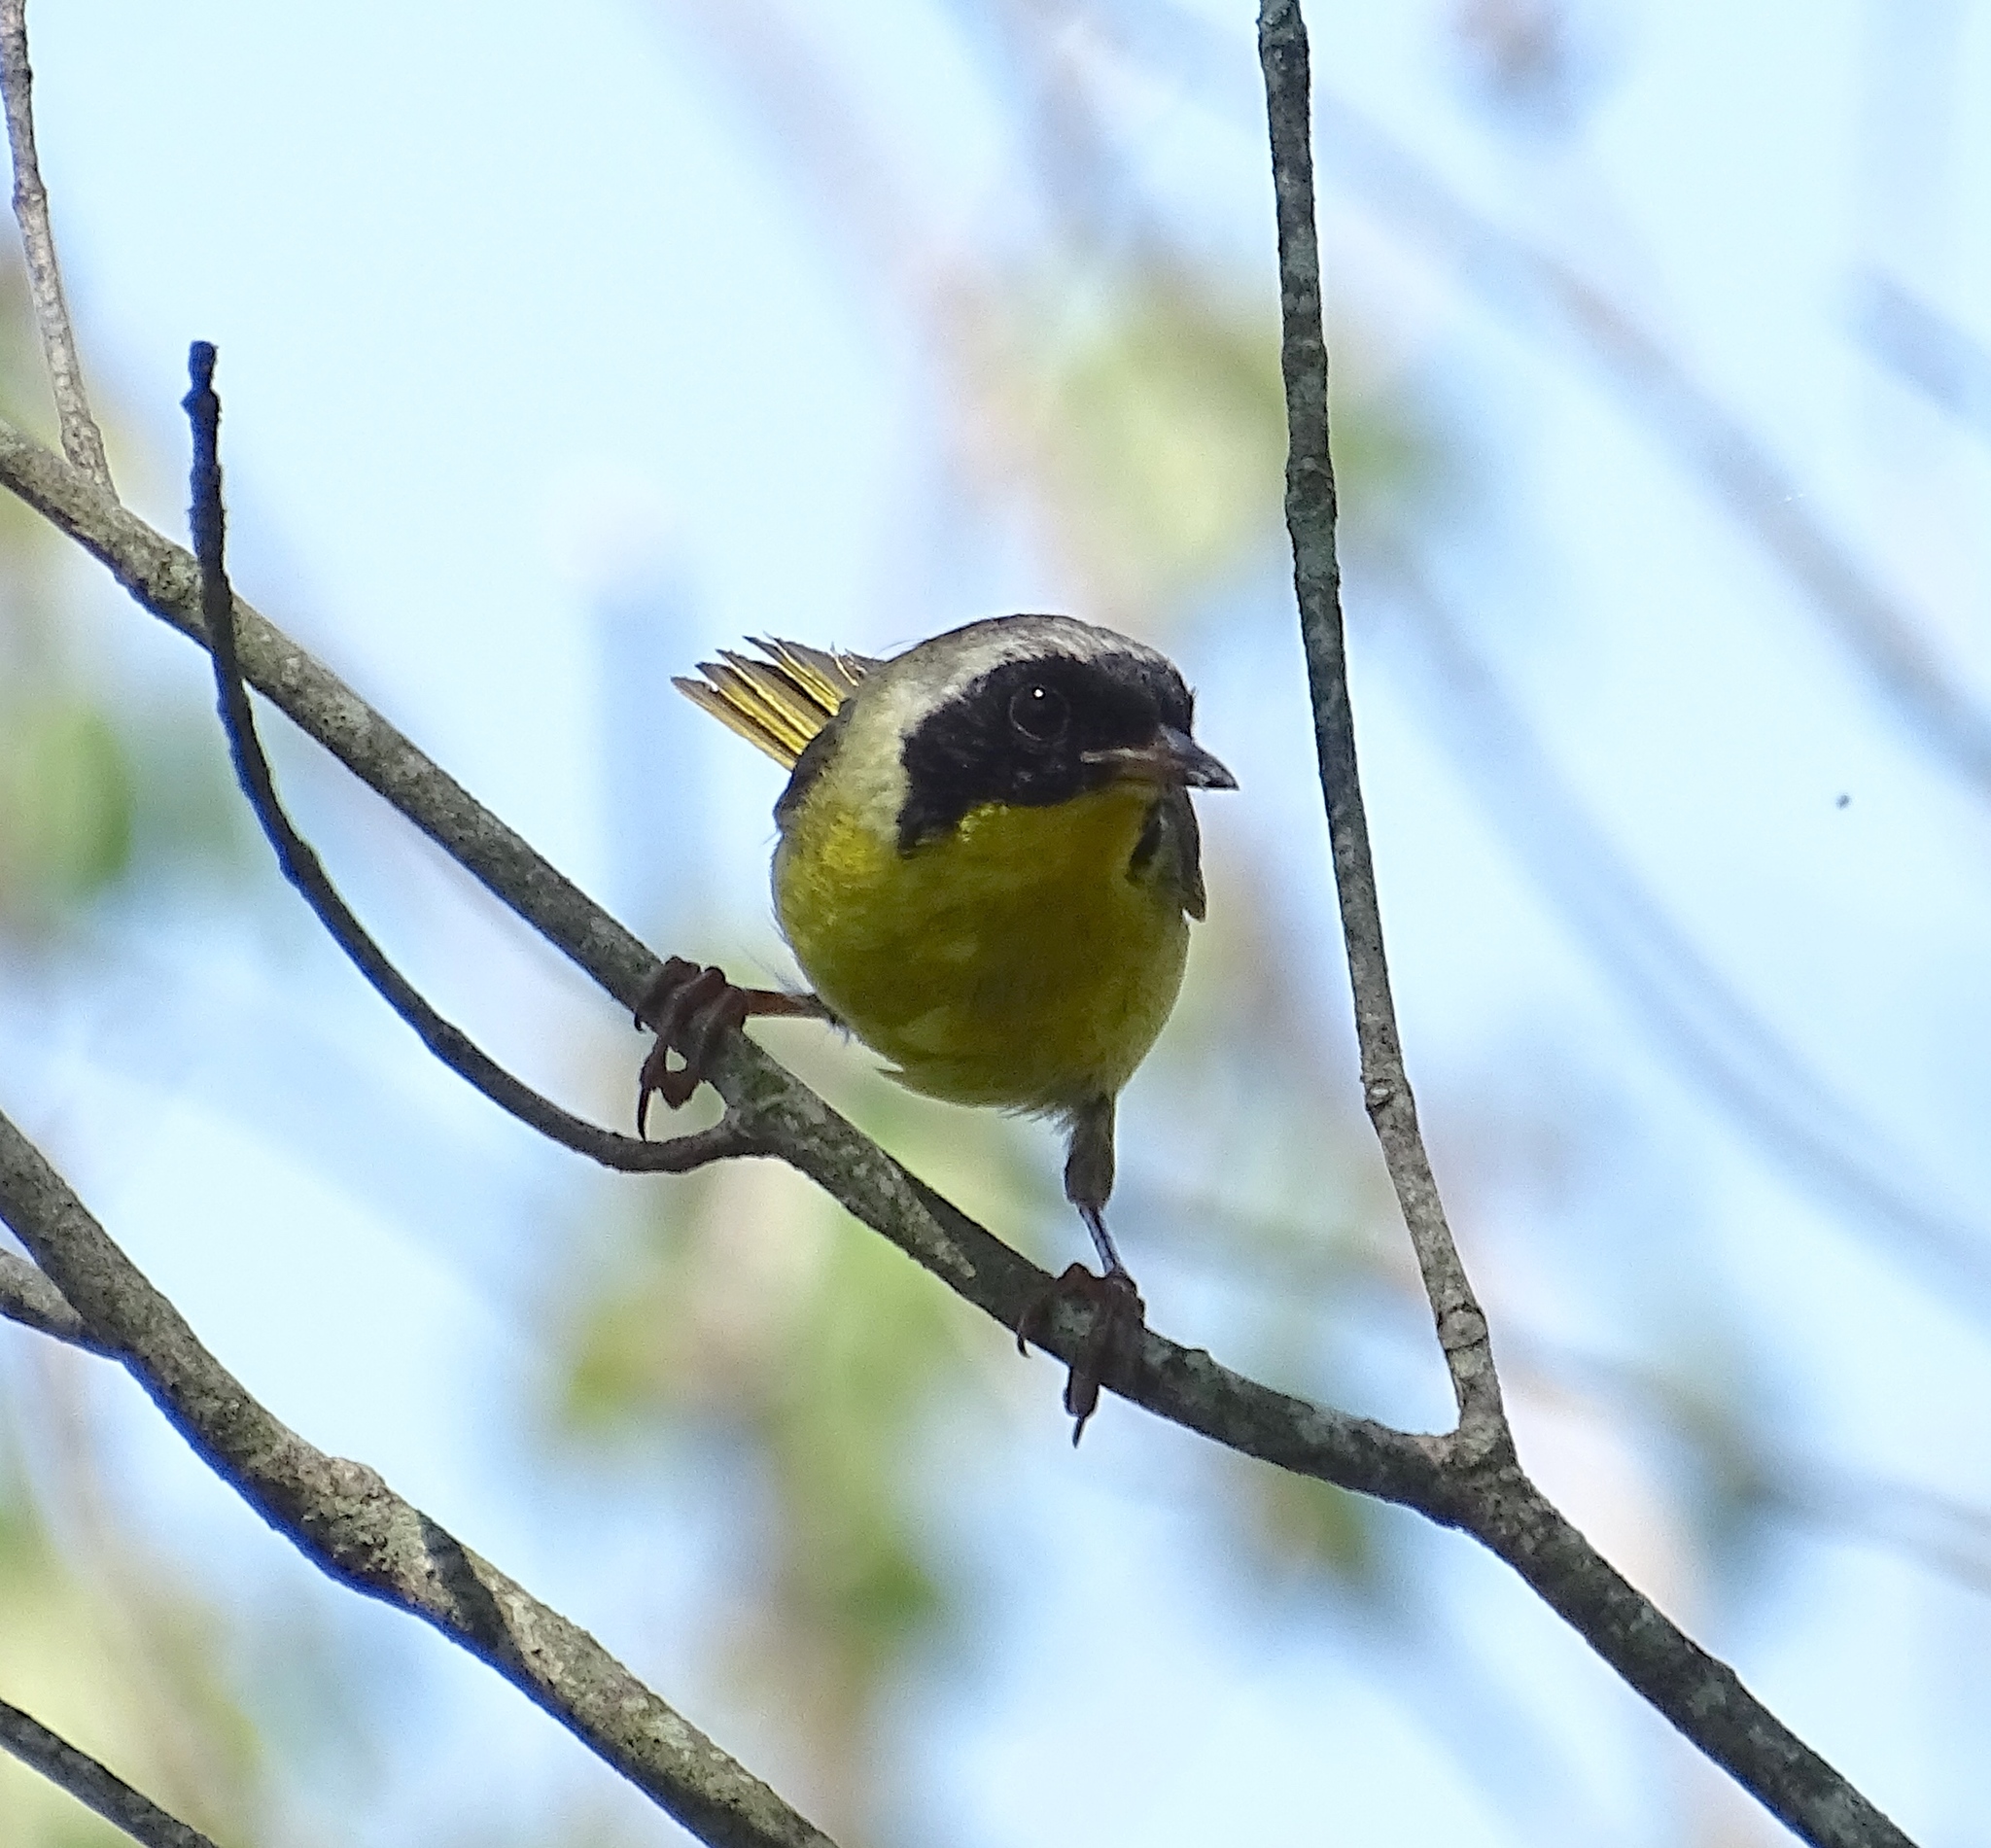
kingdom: Animalia
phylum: Chordata
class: Aves
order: Passeriformes
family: Parulidae
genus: Geothlypis
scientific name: Geothlypis trichas
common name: Common yellowthroat
